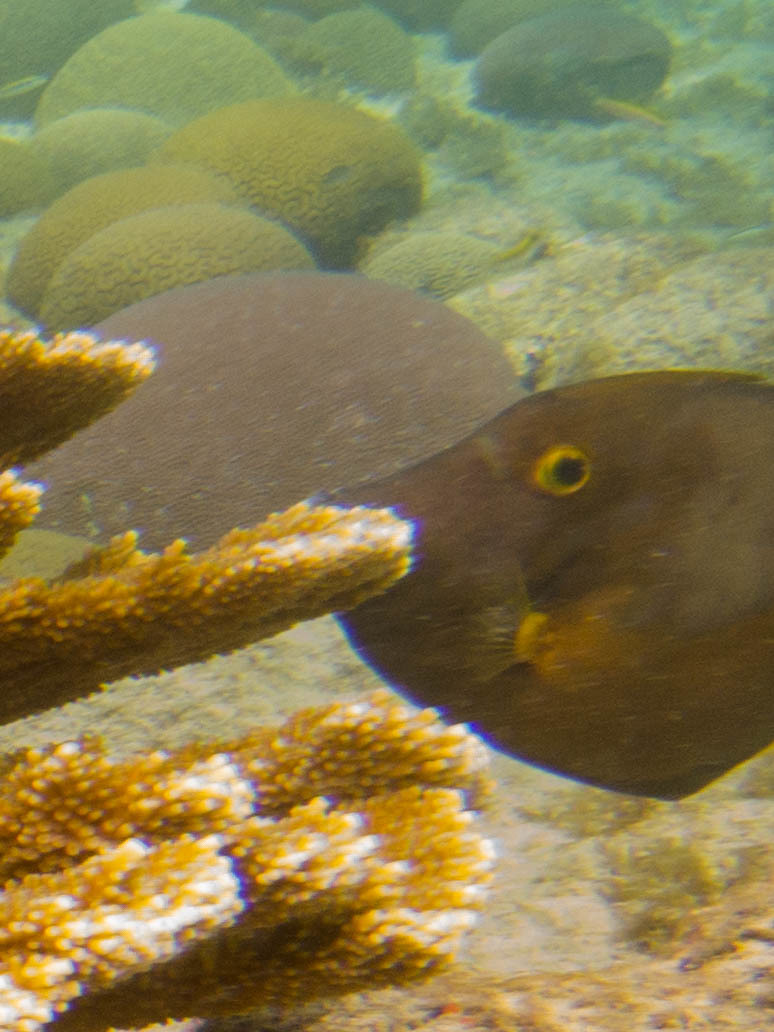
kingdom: Animalia
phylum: Chordata
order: Tetraodontiformes
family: Monacanthidae
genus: Cantherhines
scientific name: Cantherhines macrocerus
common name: Whitespotted filefish
